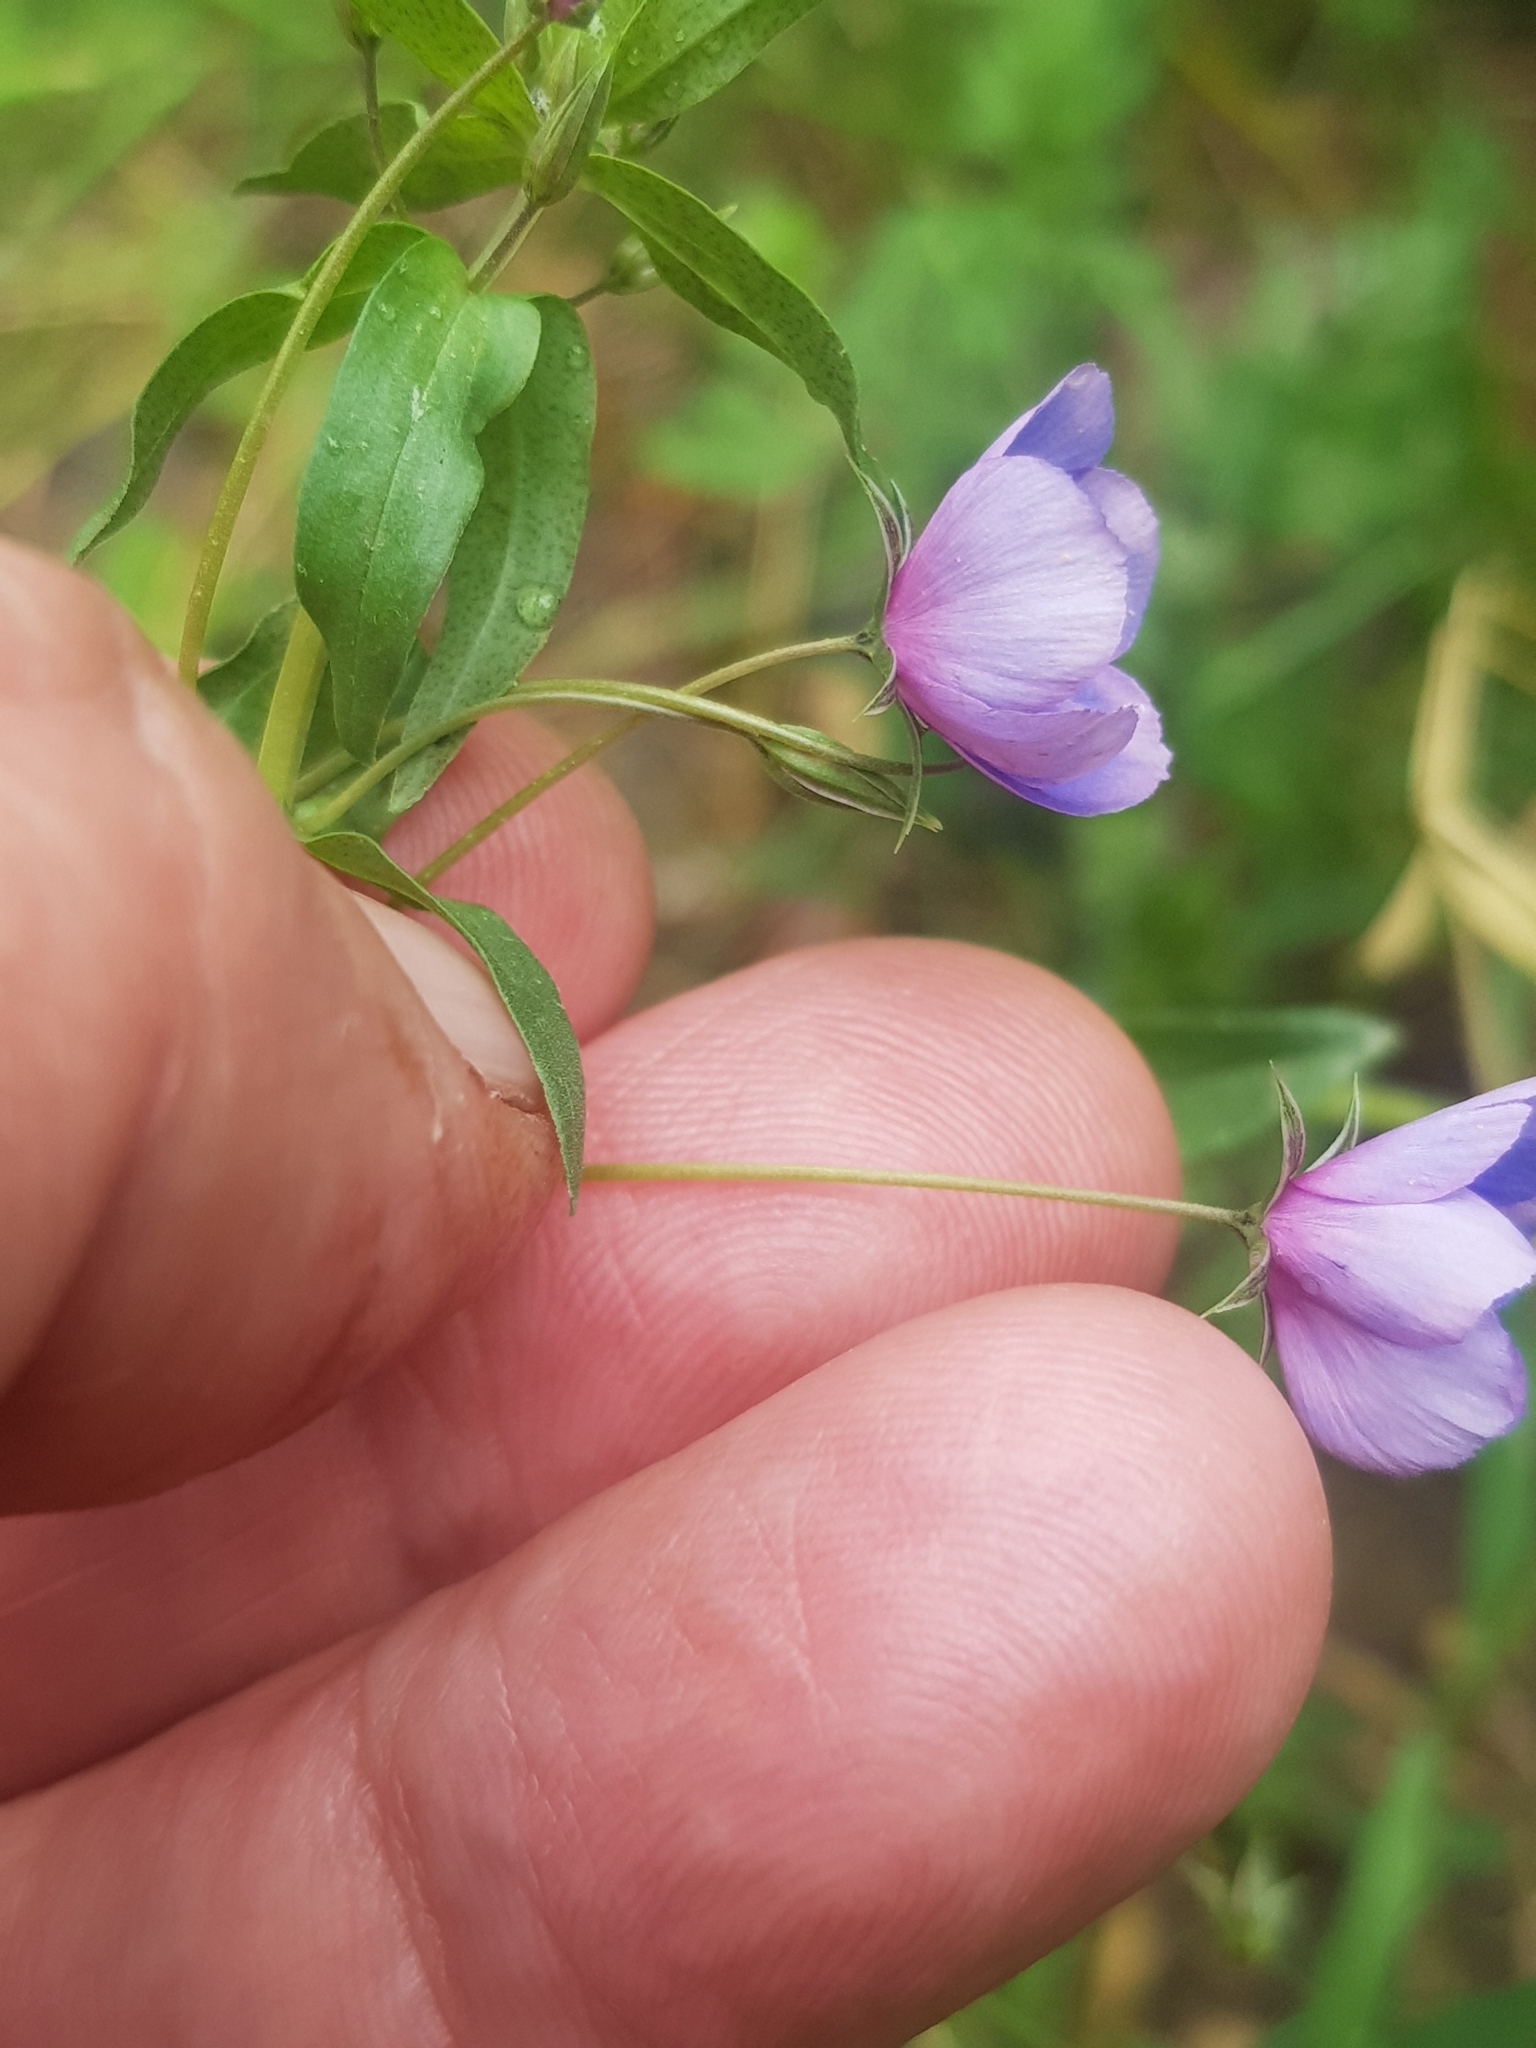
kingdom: Plantae
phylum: Tracheophyta
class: Magnoliopsida
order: Ericales
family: Primulaceae
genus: Lysimachia
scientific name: Lysimachia monelli
